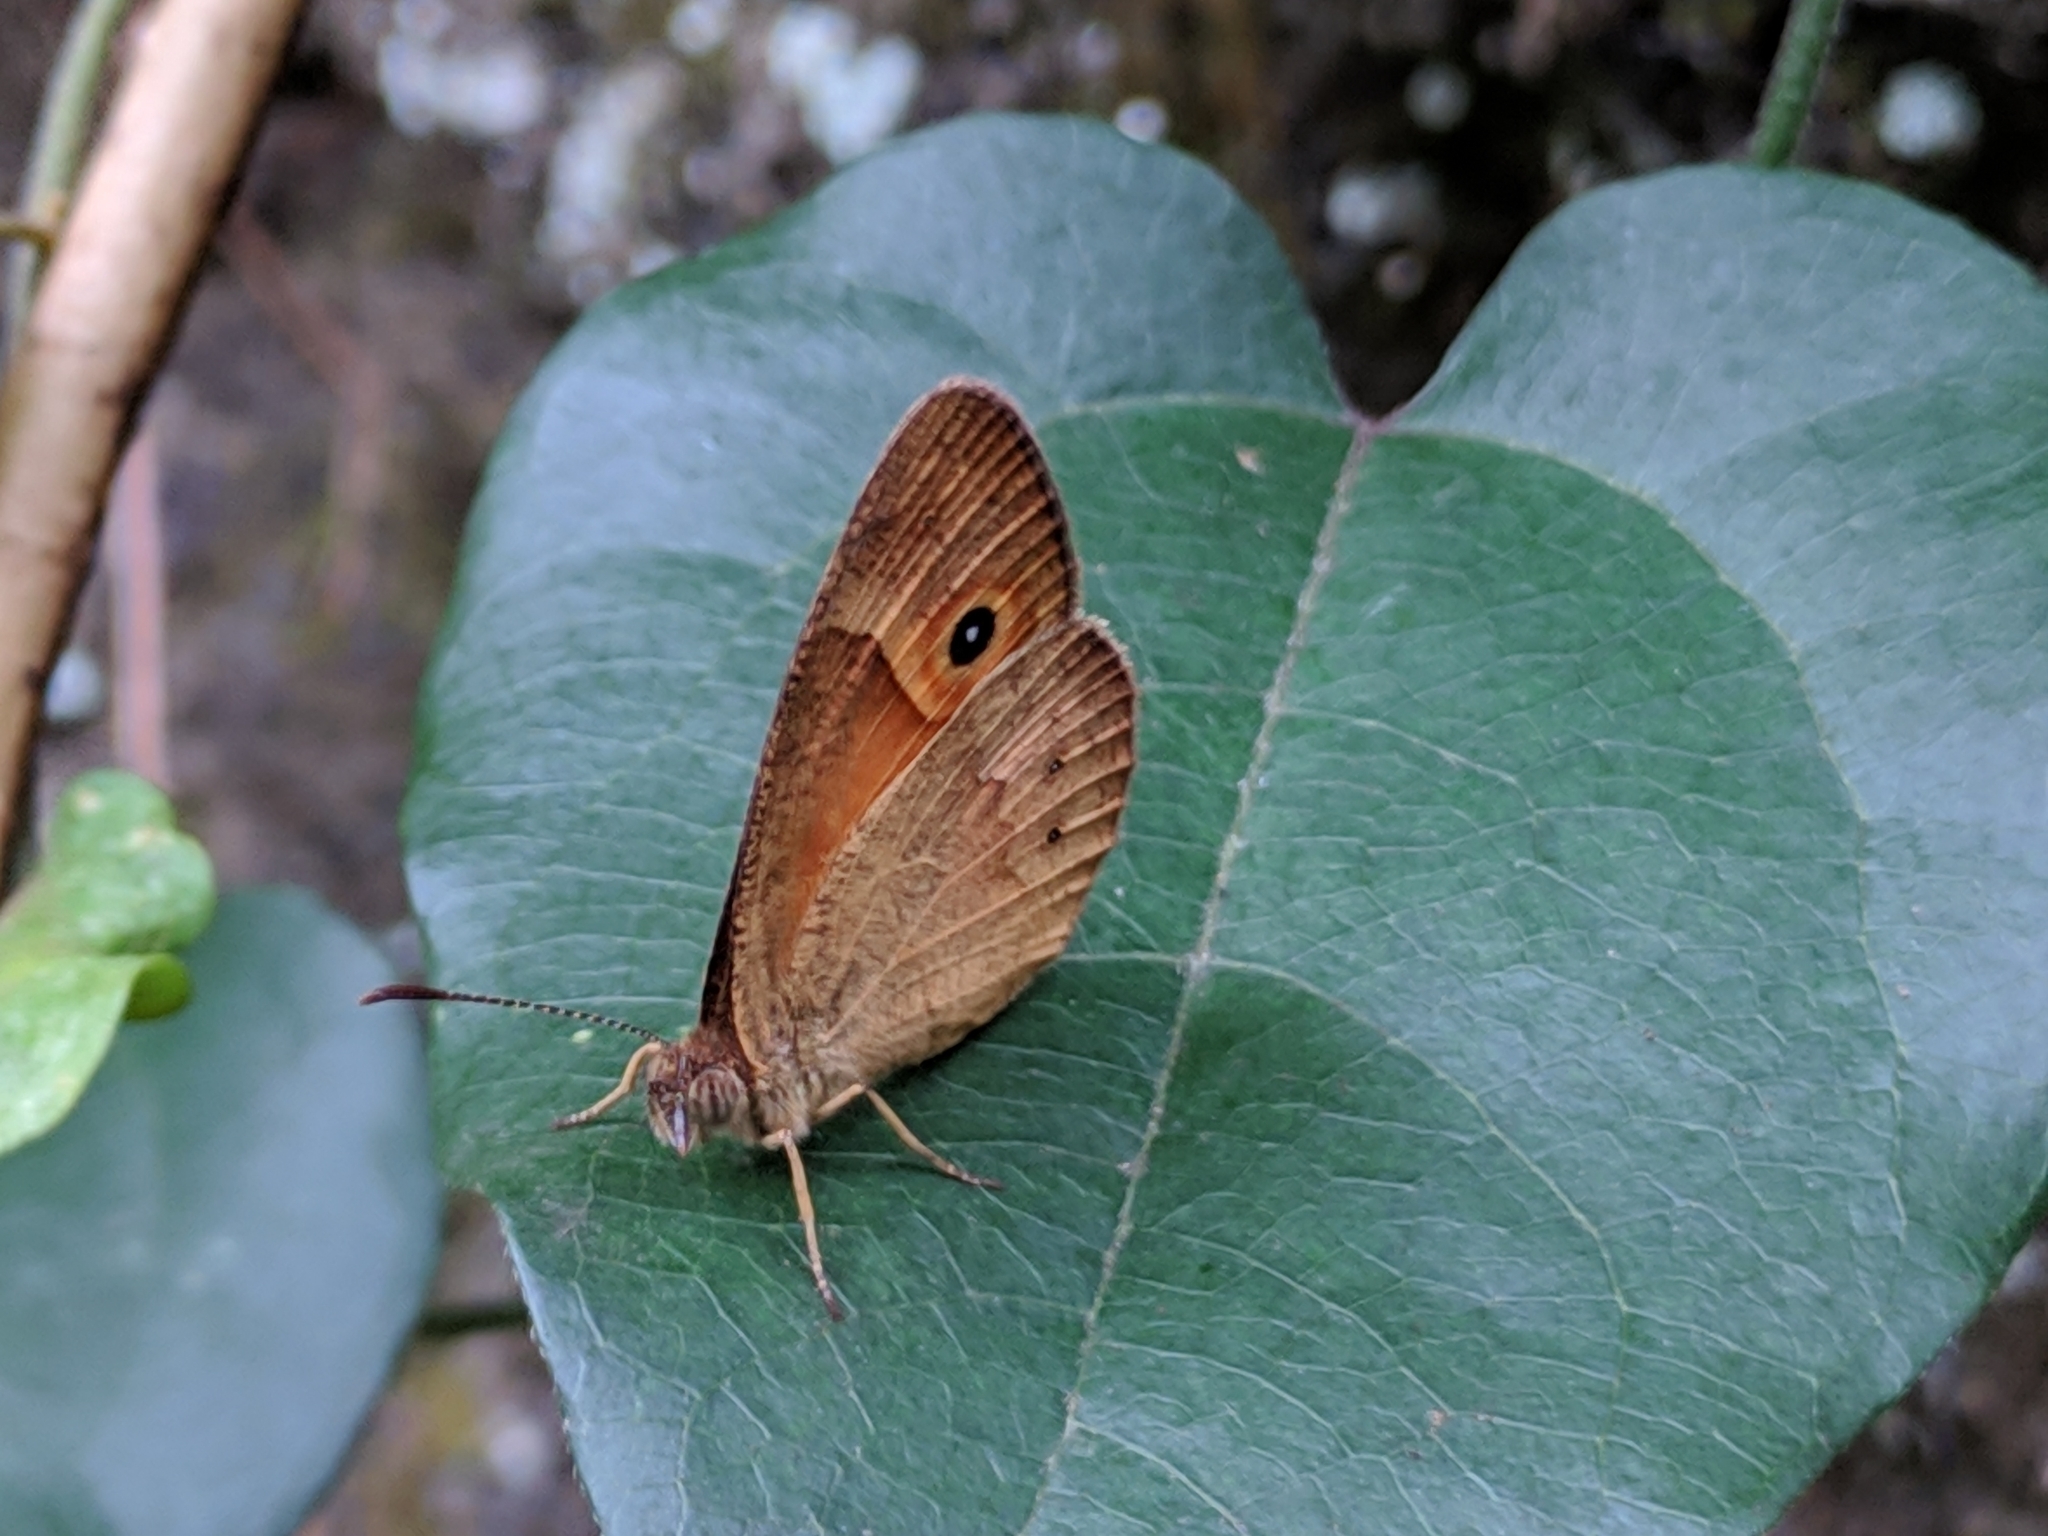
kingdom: Animalia
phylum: Arthropoda
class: Insecta
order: Lepidoptera
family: Nymphalidae
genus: Henotesia
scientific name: Henotesia narcissus
